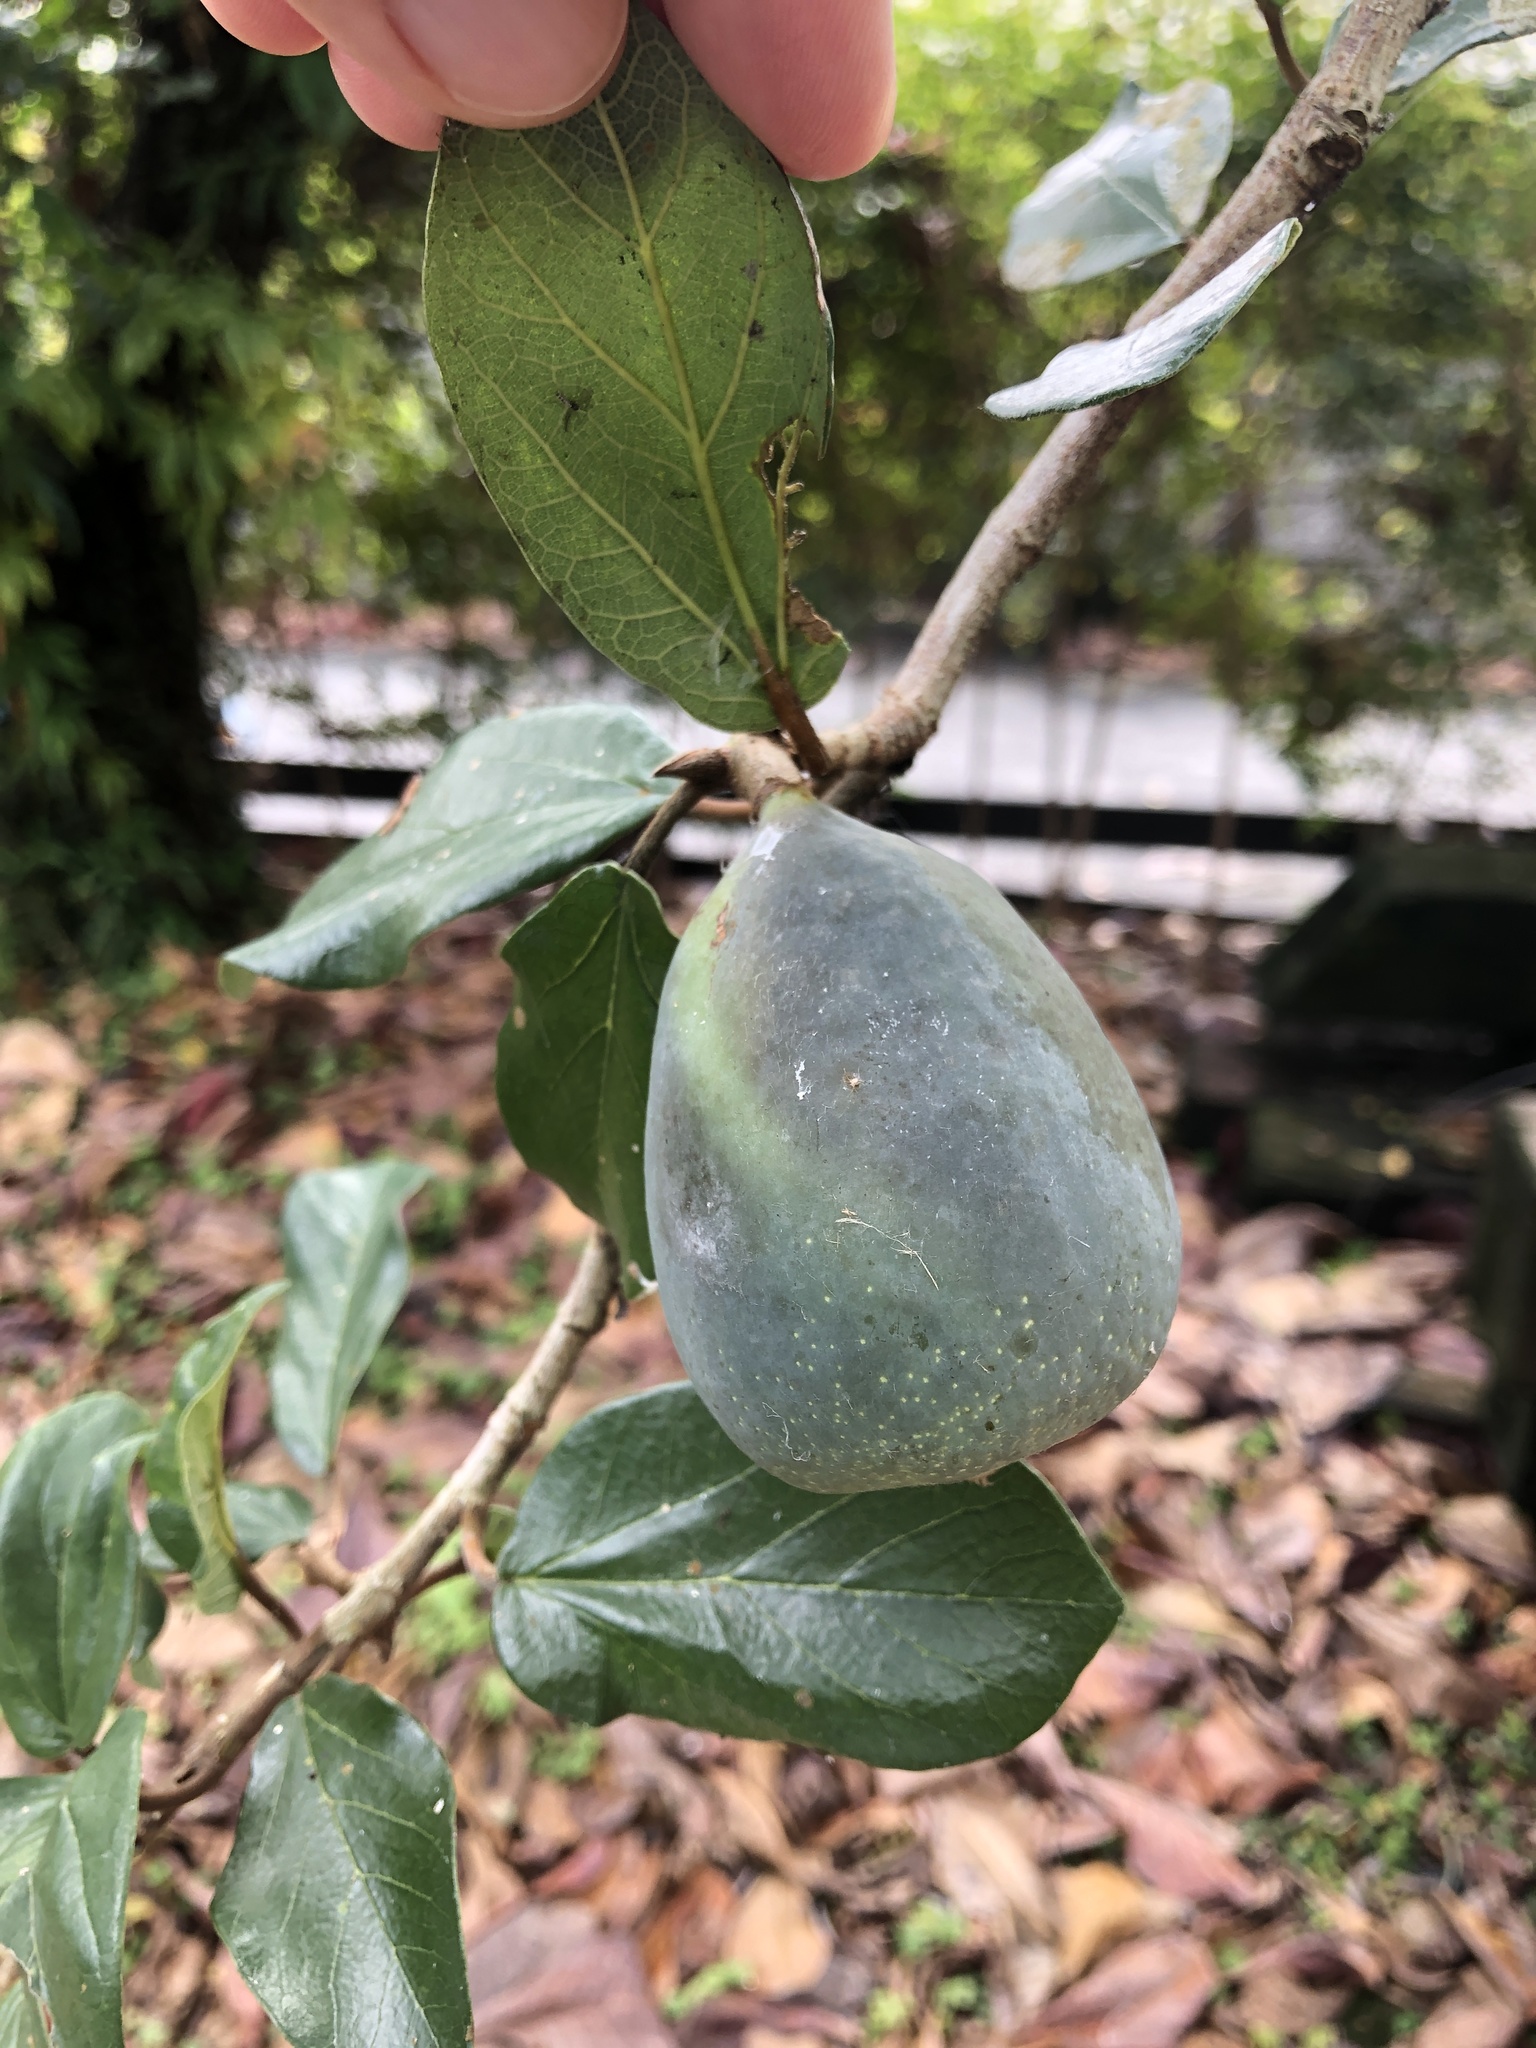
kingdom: Plantae
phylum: Tracheophyta
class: Magnoliopsida
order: Rosales
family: Moraceae
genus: Ficus
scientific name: Ficus pumila
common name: Climbingfig
